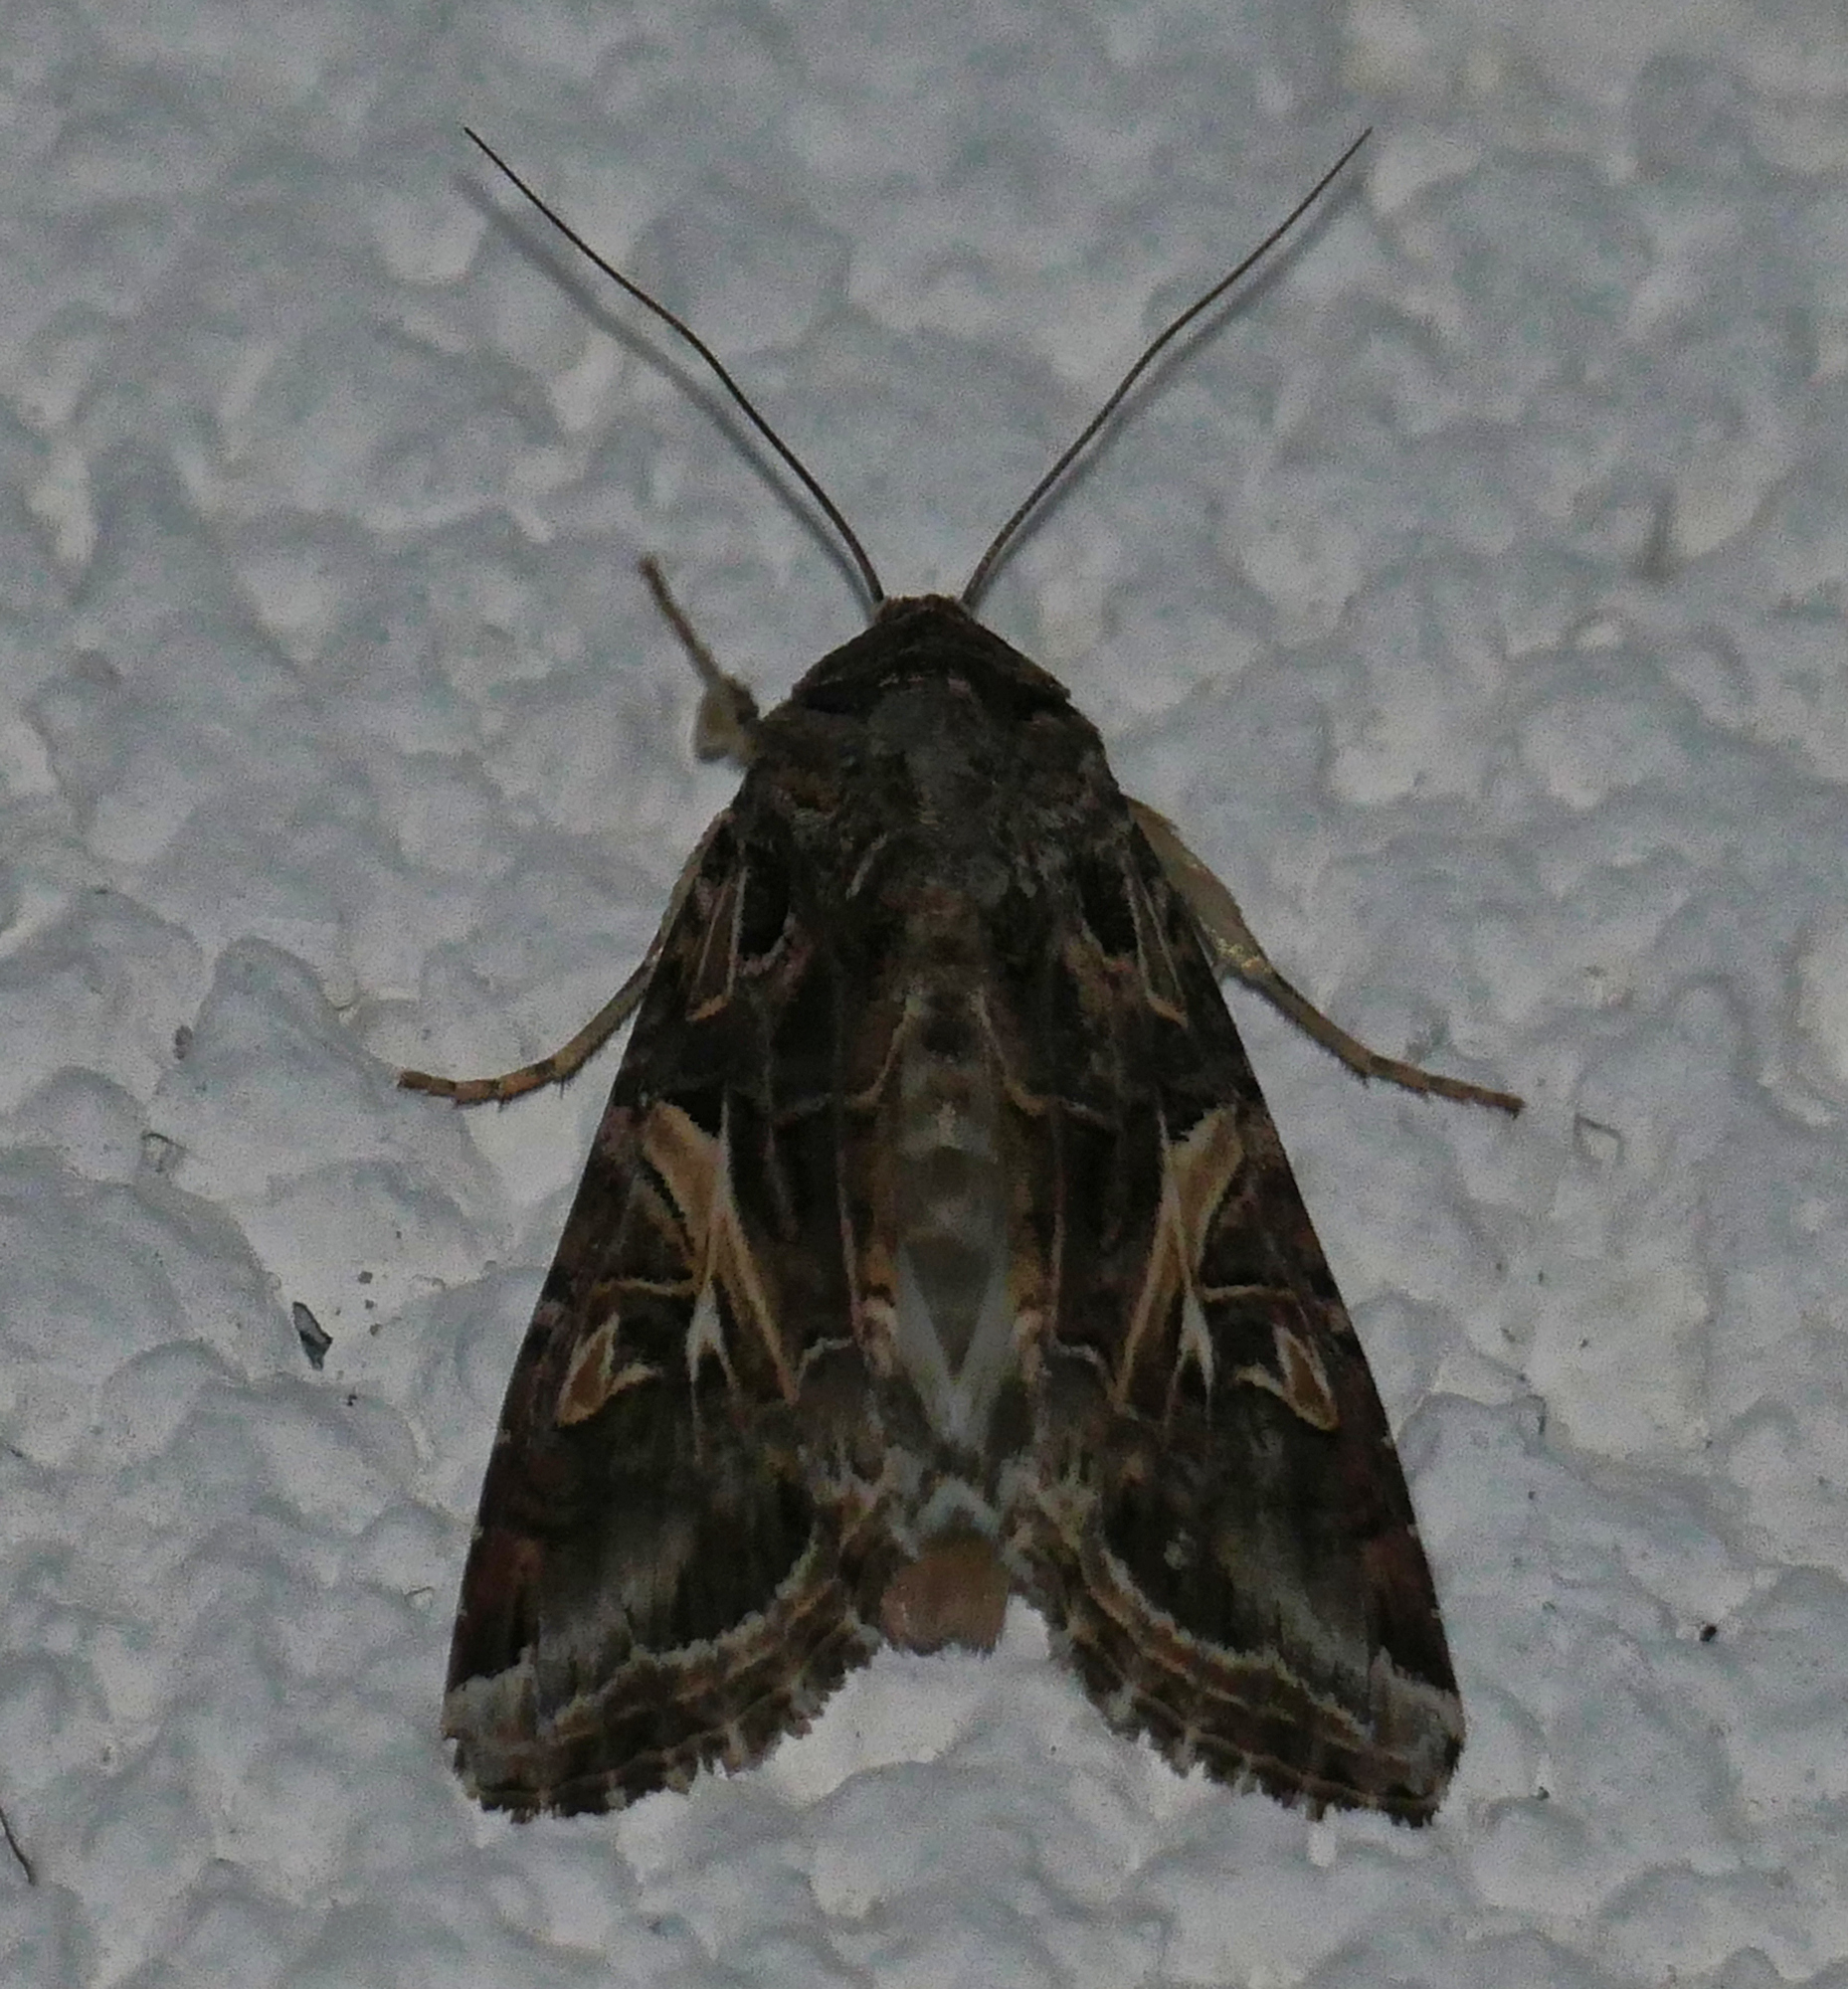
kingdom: Animalia
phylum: Arthropoda
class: Insecta
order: Lepidoptera
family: Noctuidae
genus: Spodoptera
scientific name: Spodoptera ornithogalli
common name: Yellow-striped armyworm
